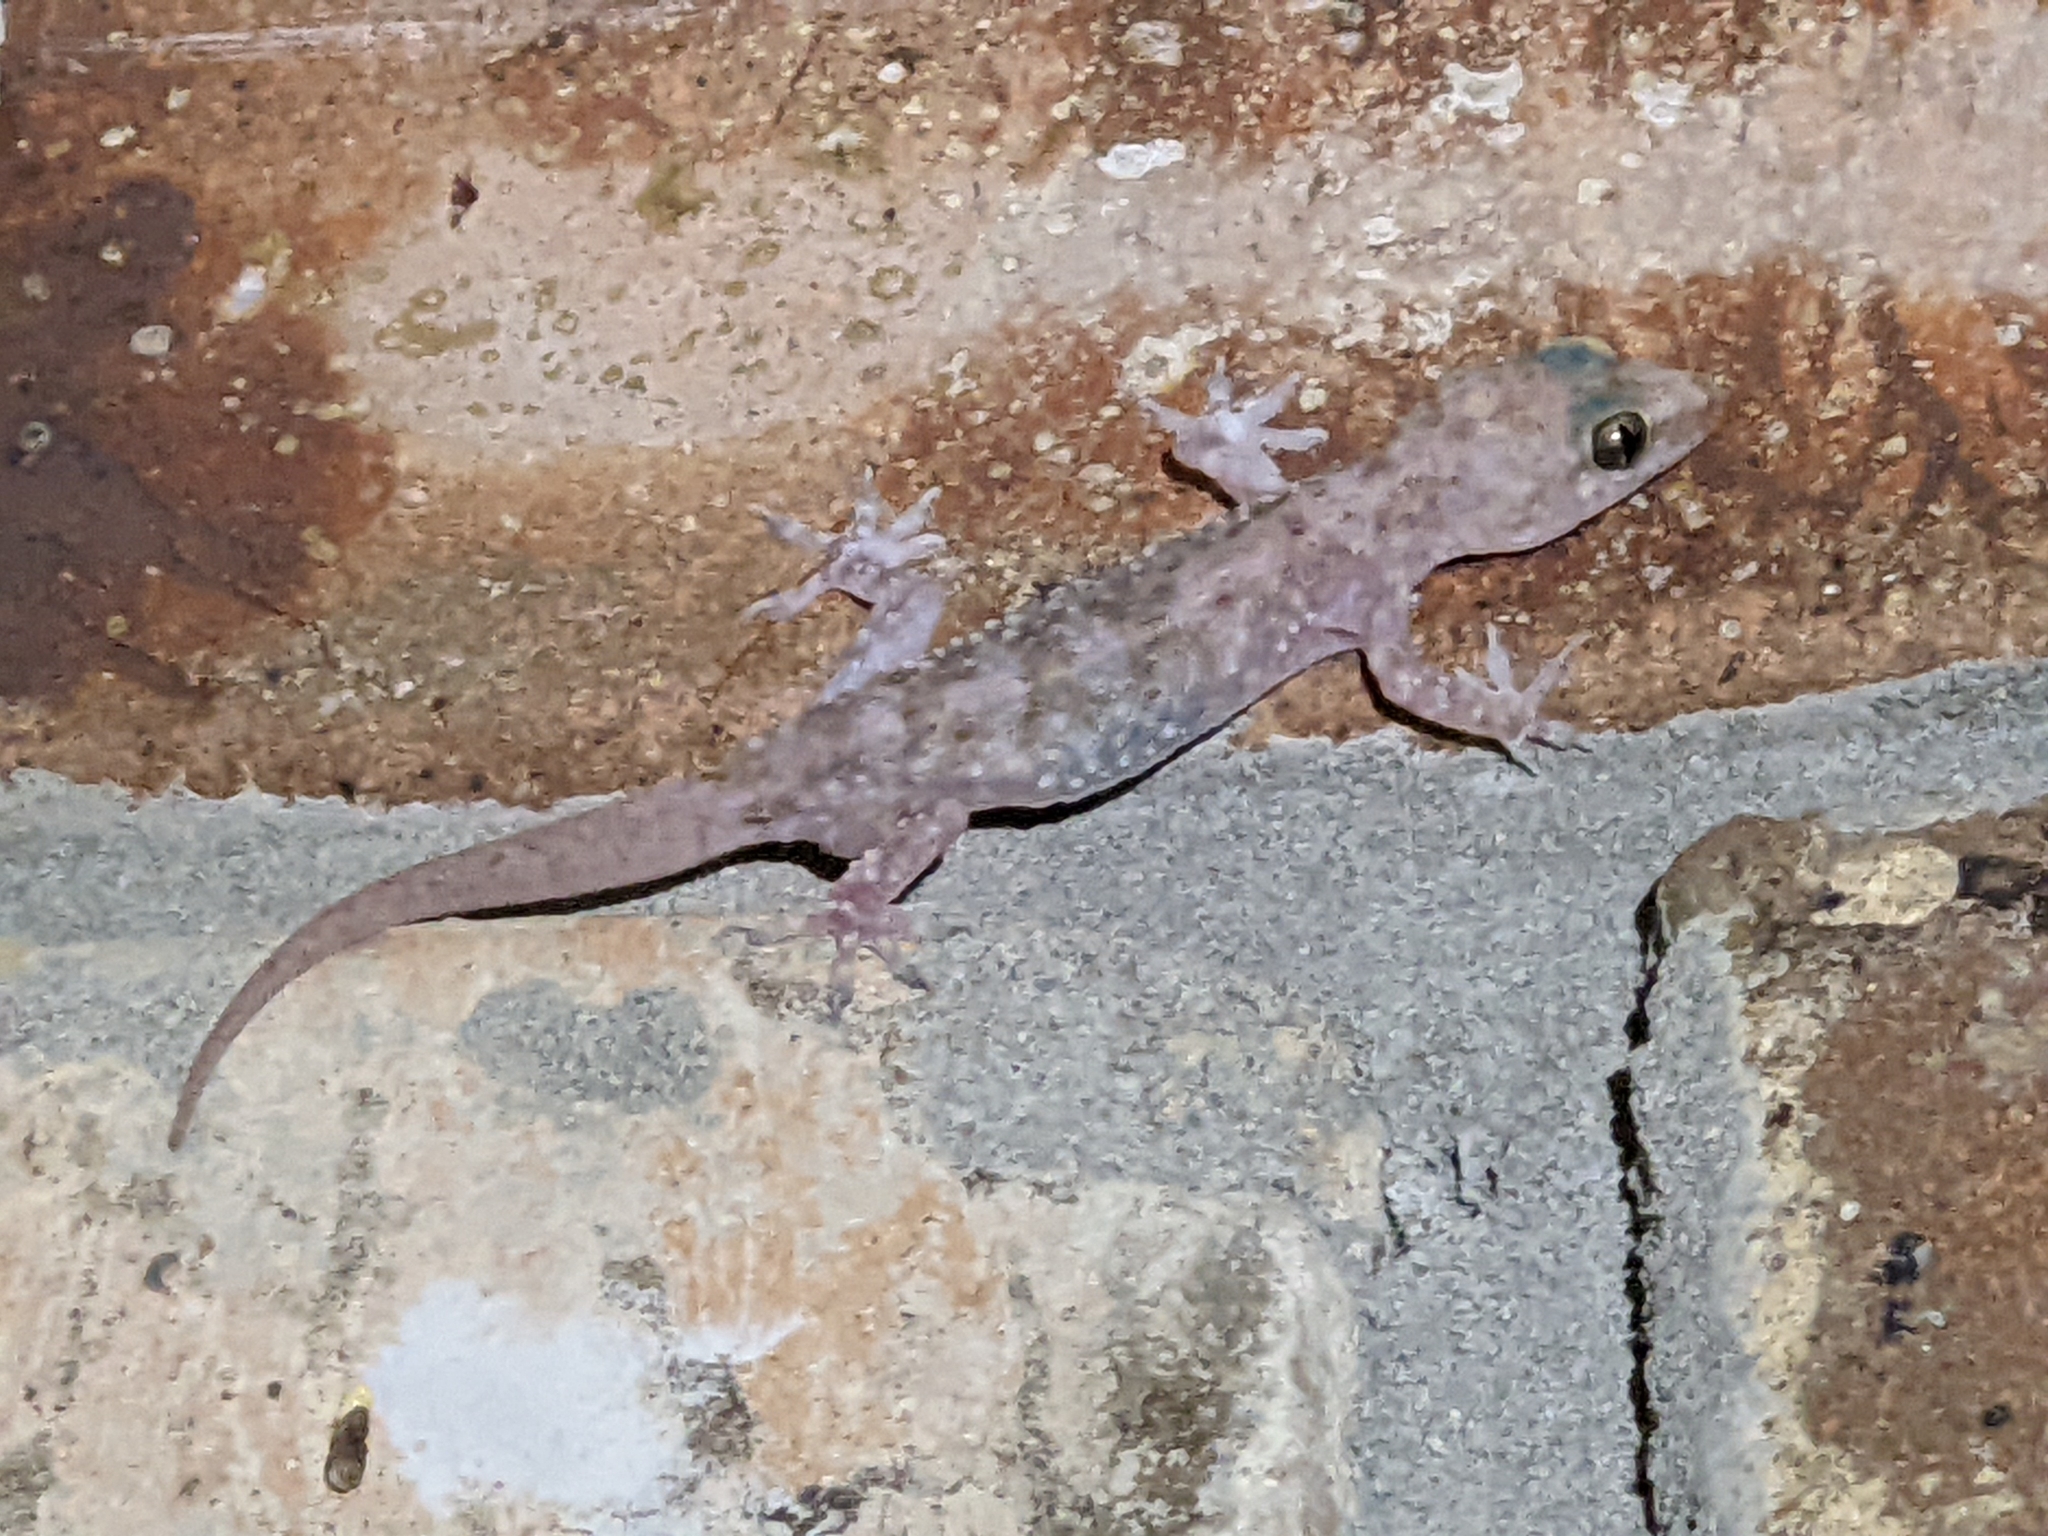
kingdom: Animalia
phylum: Chordata
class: Squamata
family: Gekkonidae
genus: Hemidactylus
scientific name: Hemidactylus turcicus
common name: Turkish gecko
